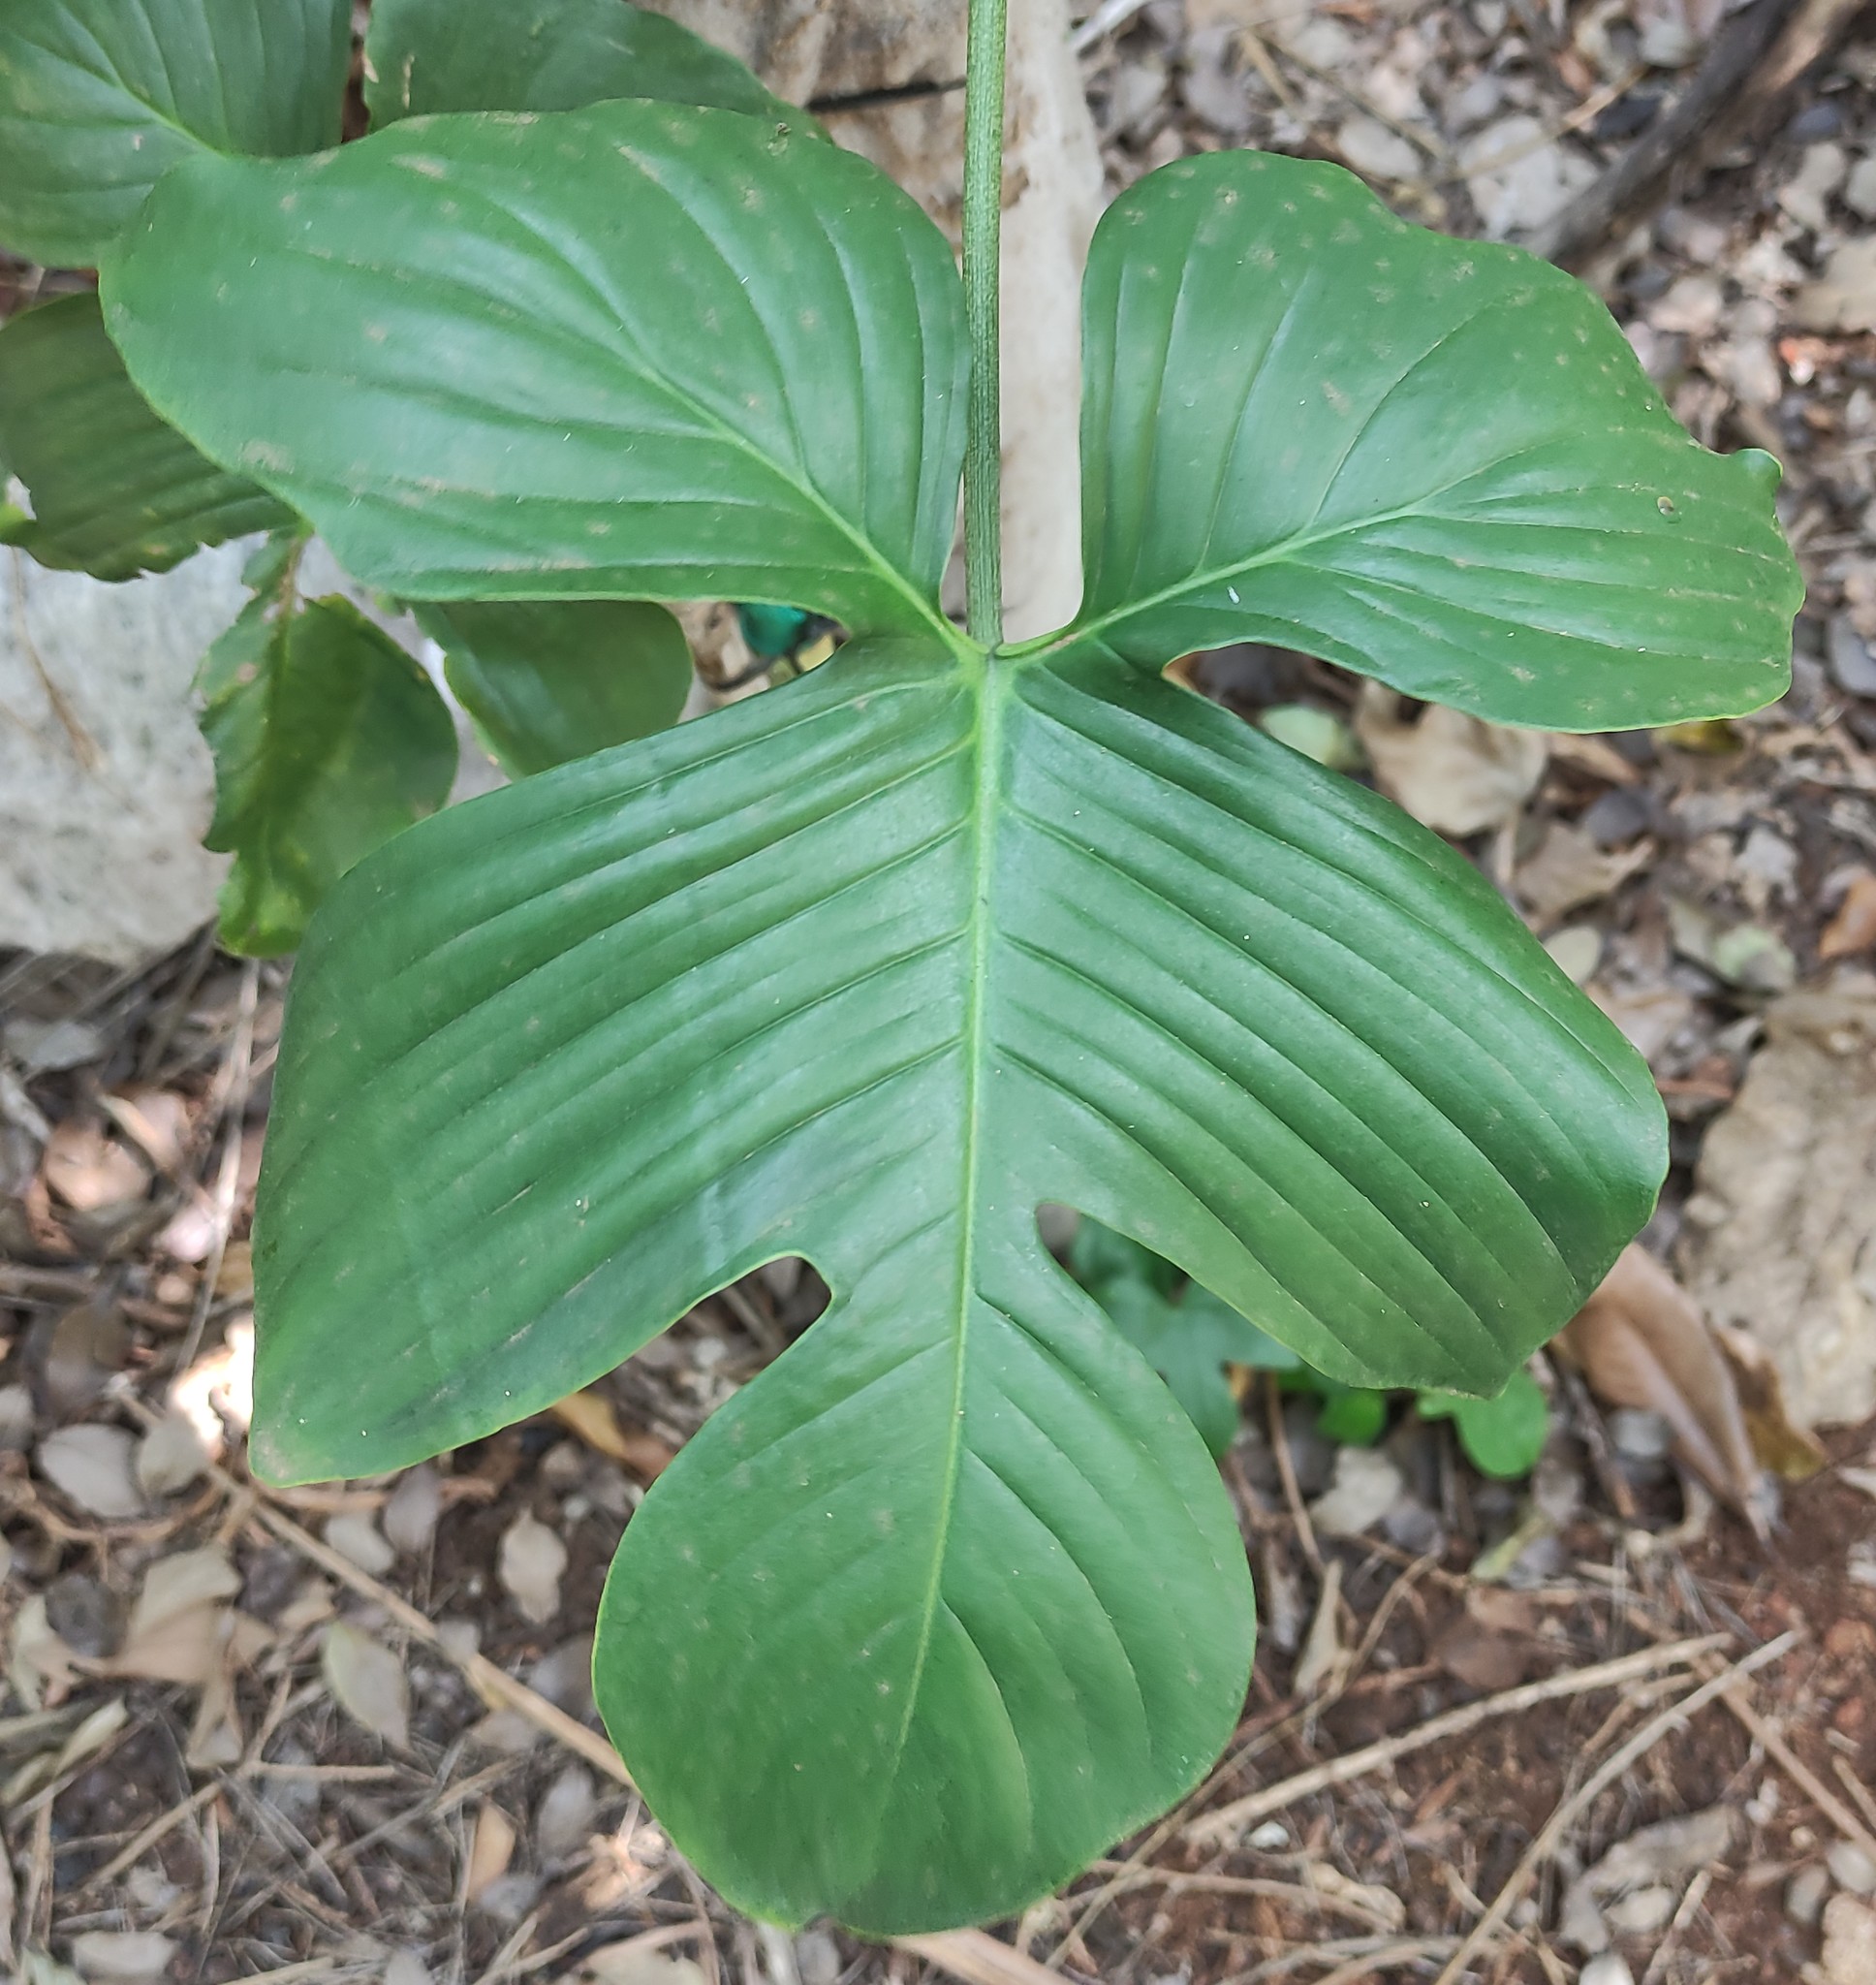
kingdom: Plantae
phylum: Tracheophyta
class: Liliopsida
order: Alismatales
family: Araceae
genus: Philodendron
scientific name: Philodendron pedatum
